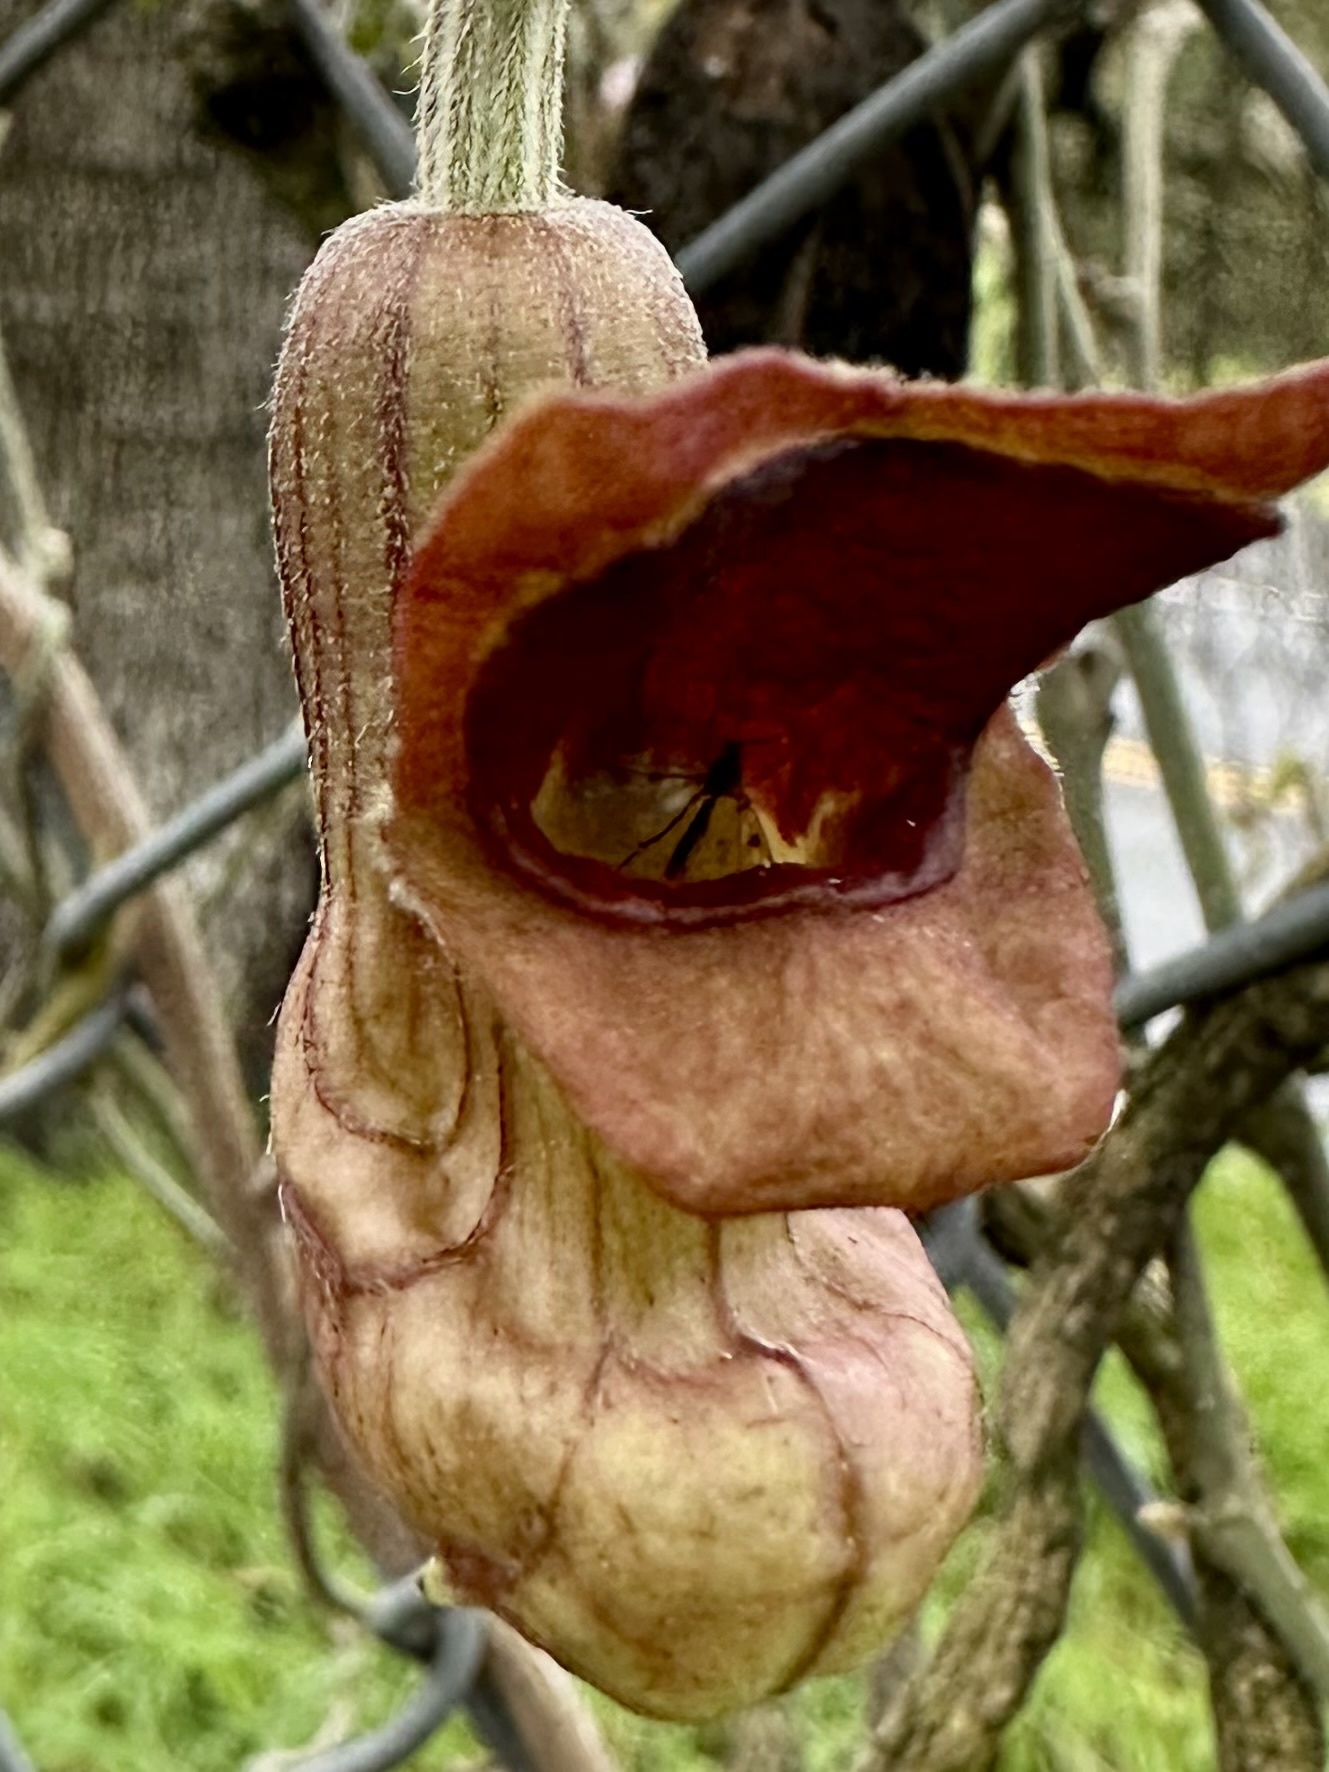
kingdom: Plantae
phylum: Tracheophyta
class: Magnoliopsida
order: Piperales
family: Aristolochiaceae
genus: Isotrema
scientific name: Isotrema californicum
